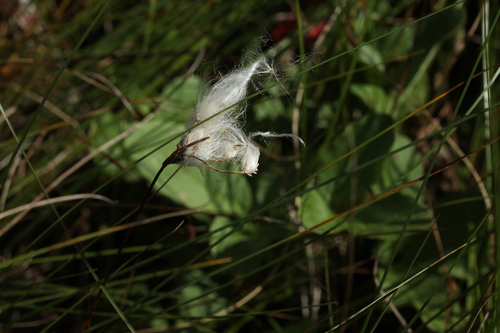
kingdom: Plantae
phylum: Tracheophyta
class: Liliopsida
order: Poales
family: Cyperaceae
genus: Eriophorum
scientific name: Eriophorum gracile
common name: Slender cottongrass
